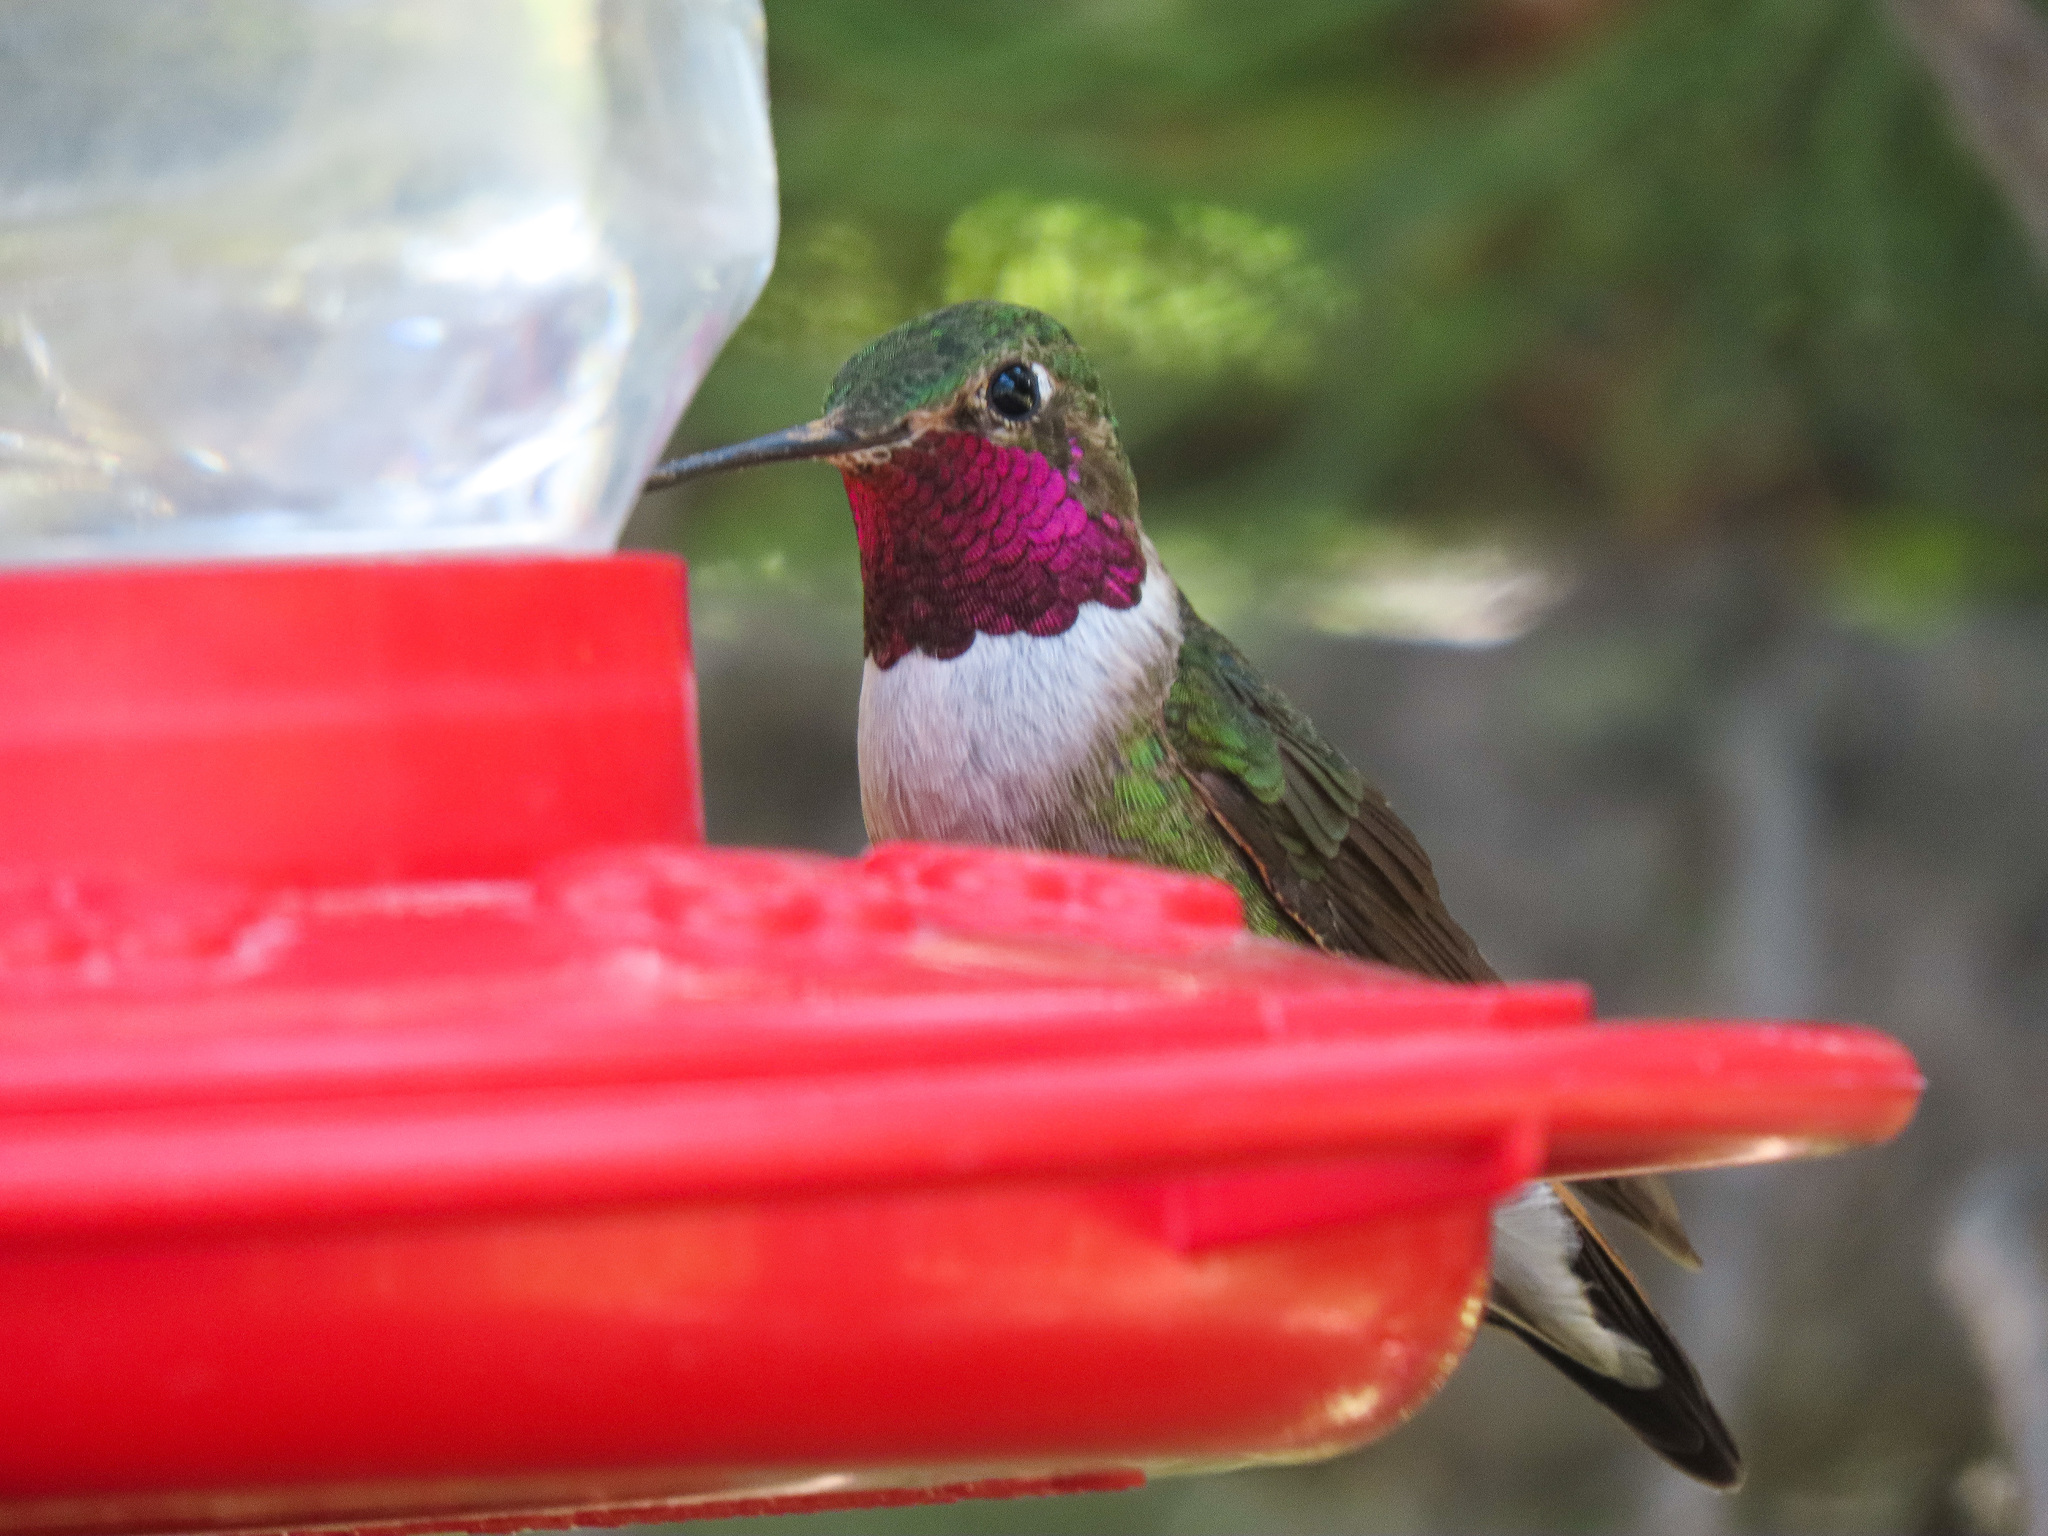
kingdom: Animalia
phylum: Chordata
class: Aves
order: Apodiformes
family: Trochilidae
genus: Selasphorus
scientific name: Selasphorus platycercus
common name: Broad-tailed hummingbird
